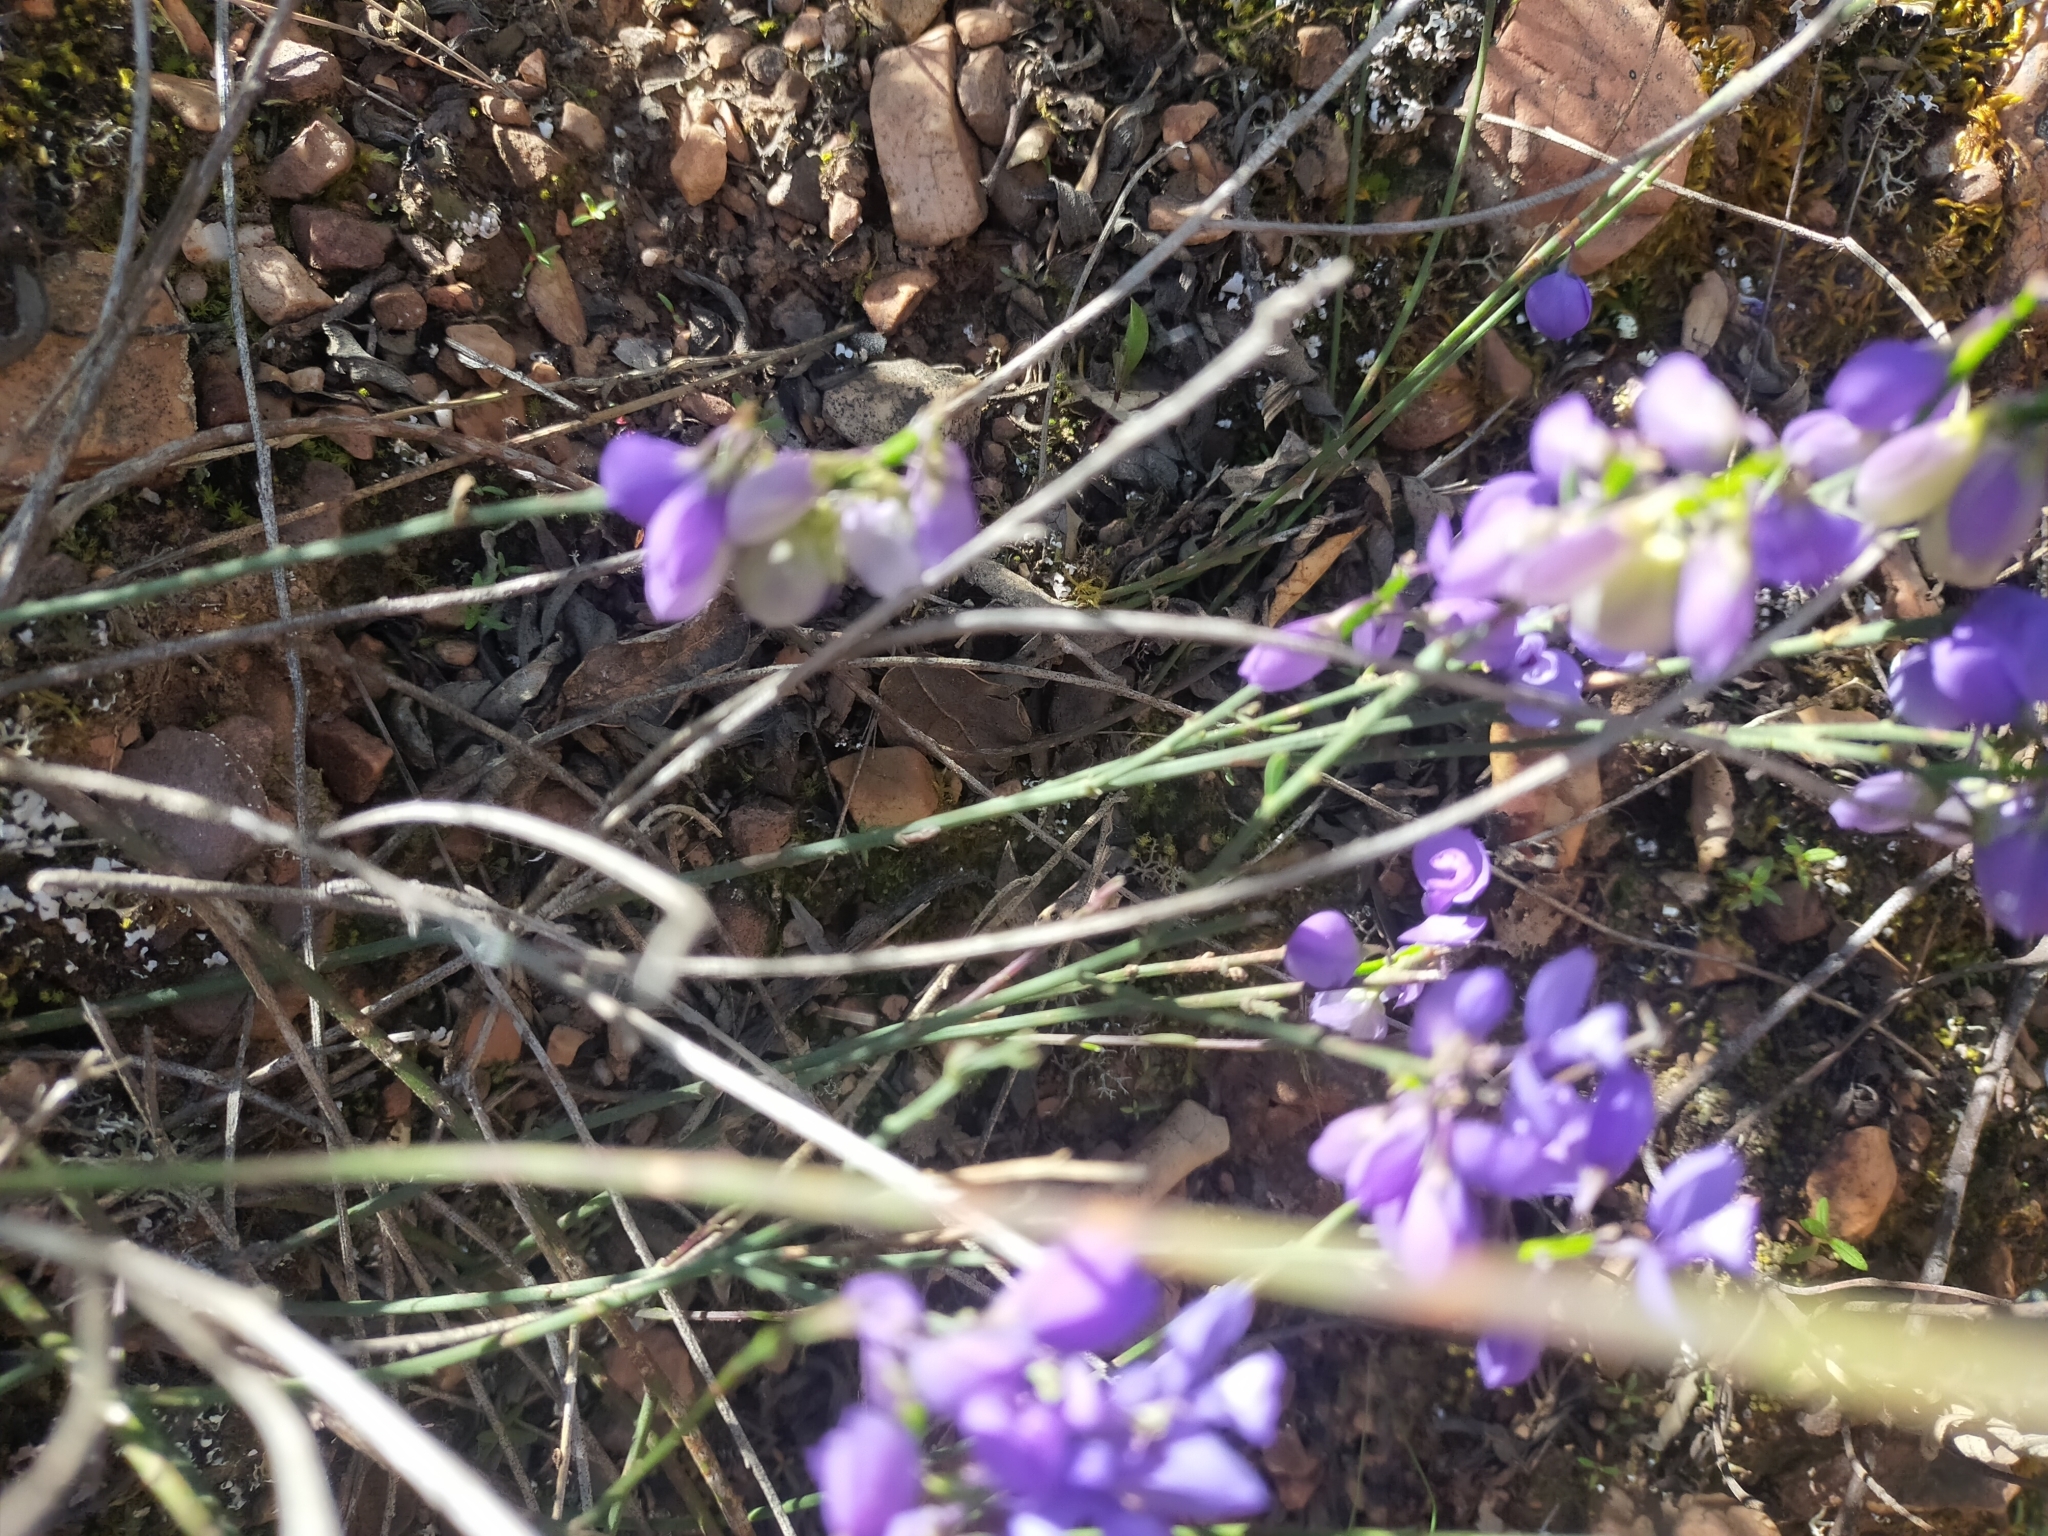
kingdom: Plantae
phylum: Tracheophyta
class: Magnoliopsida
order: Fabales
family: Polygalaceae
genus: Polygala
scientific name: Polygala microphylla
